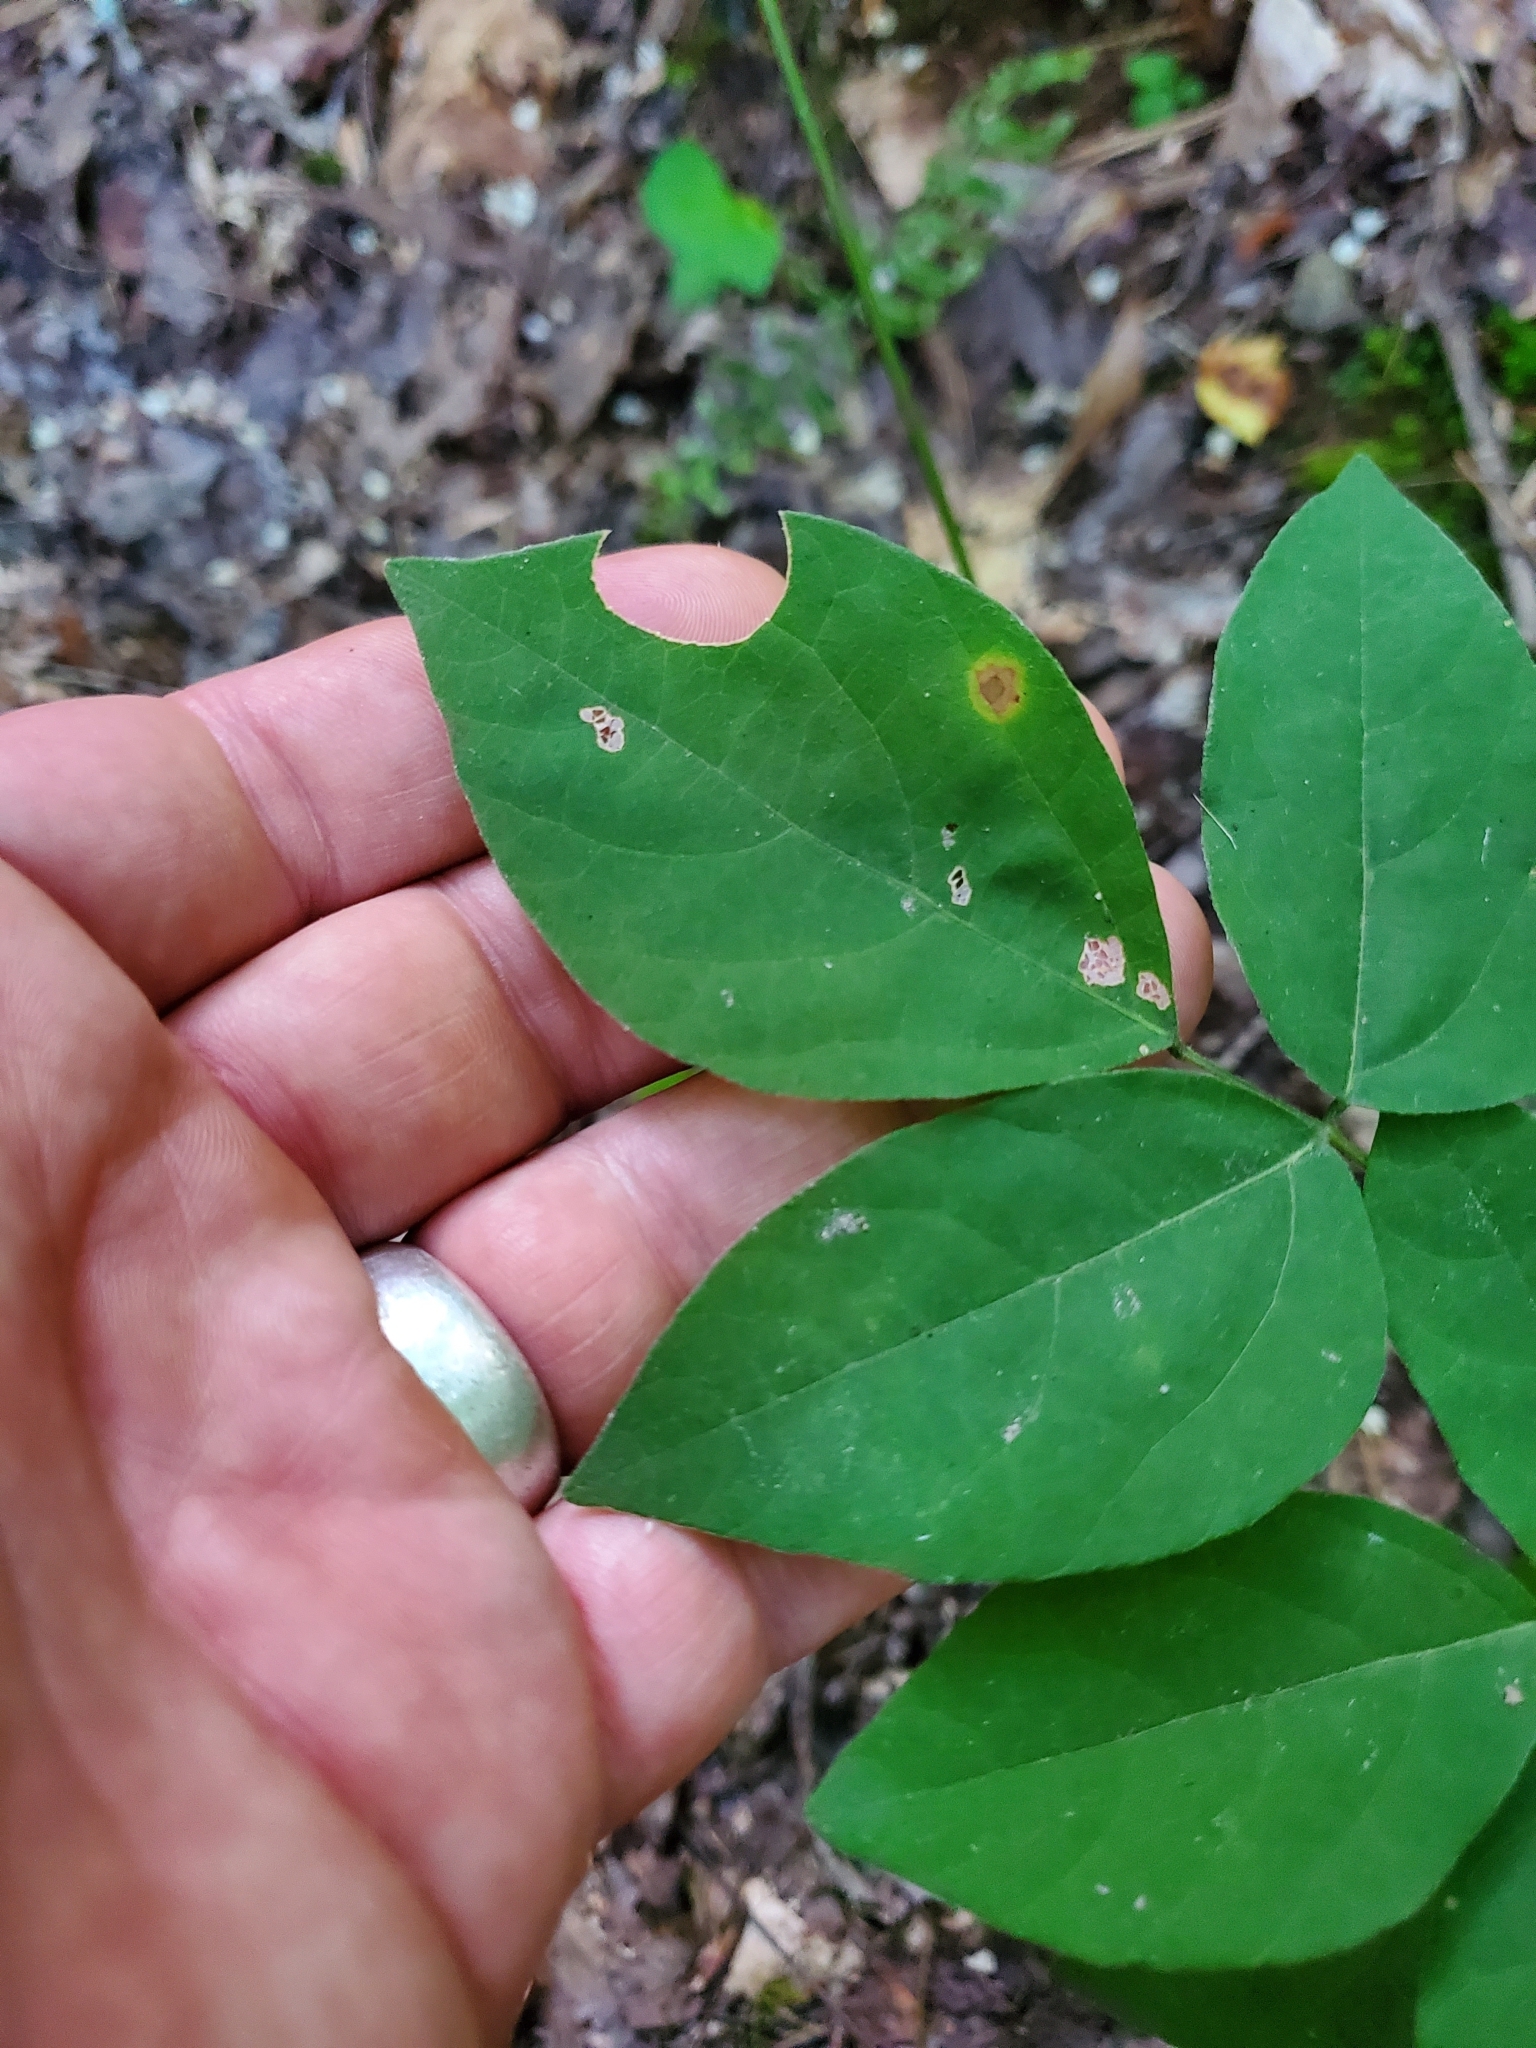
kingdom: Plantae
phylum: Tracheophyta
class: Magnoliopsida
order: Fabales
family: Fabaceae
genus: Hylodesmum
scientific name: Hylodesmum nudiflorum
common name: Bare-stemmed tick-trefoil
